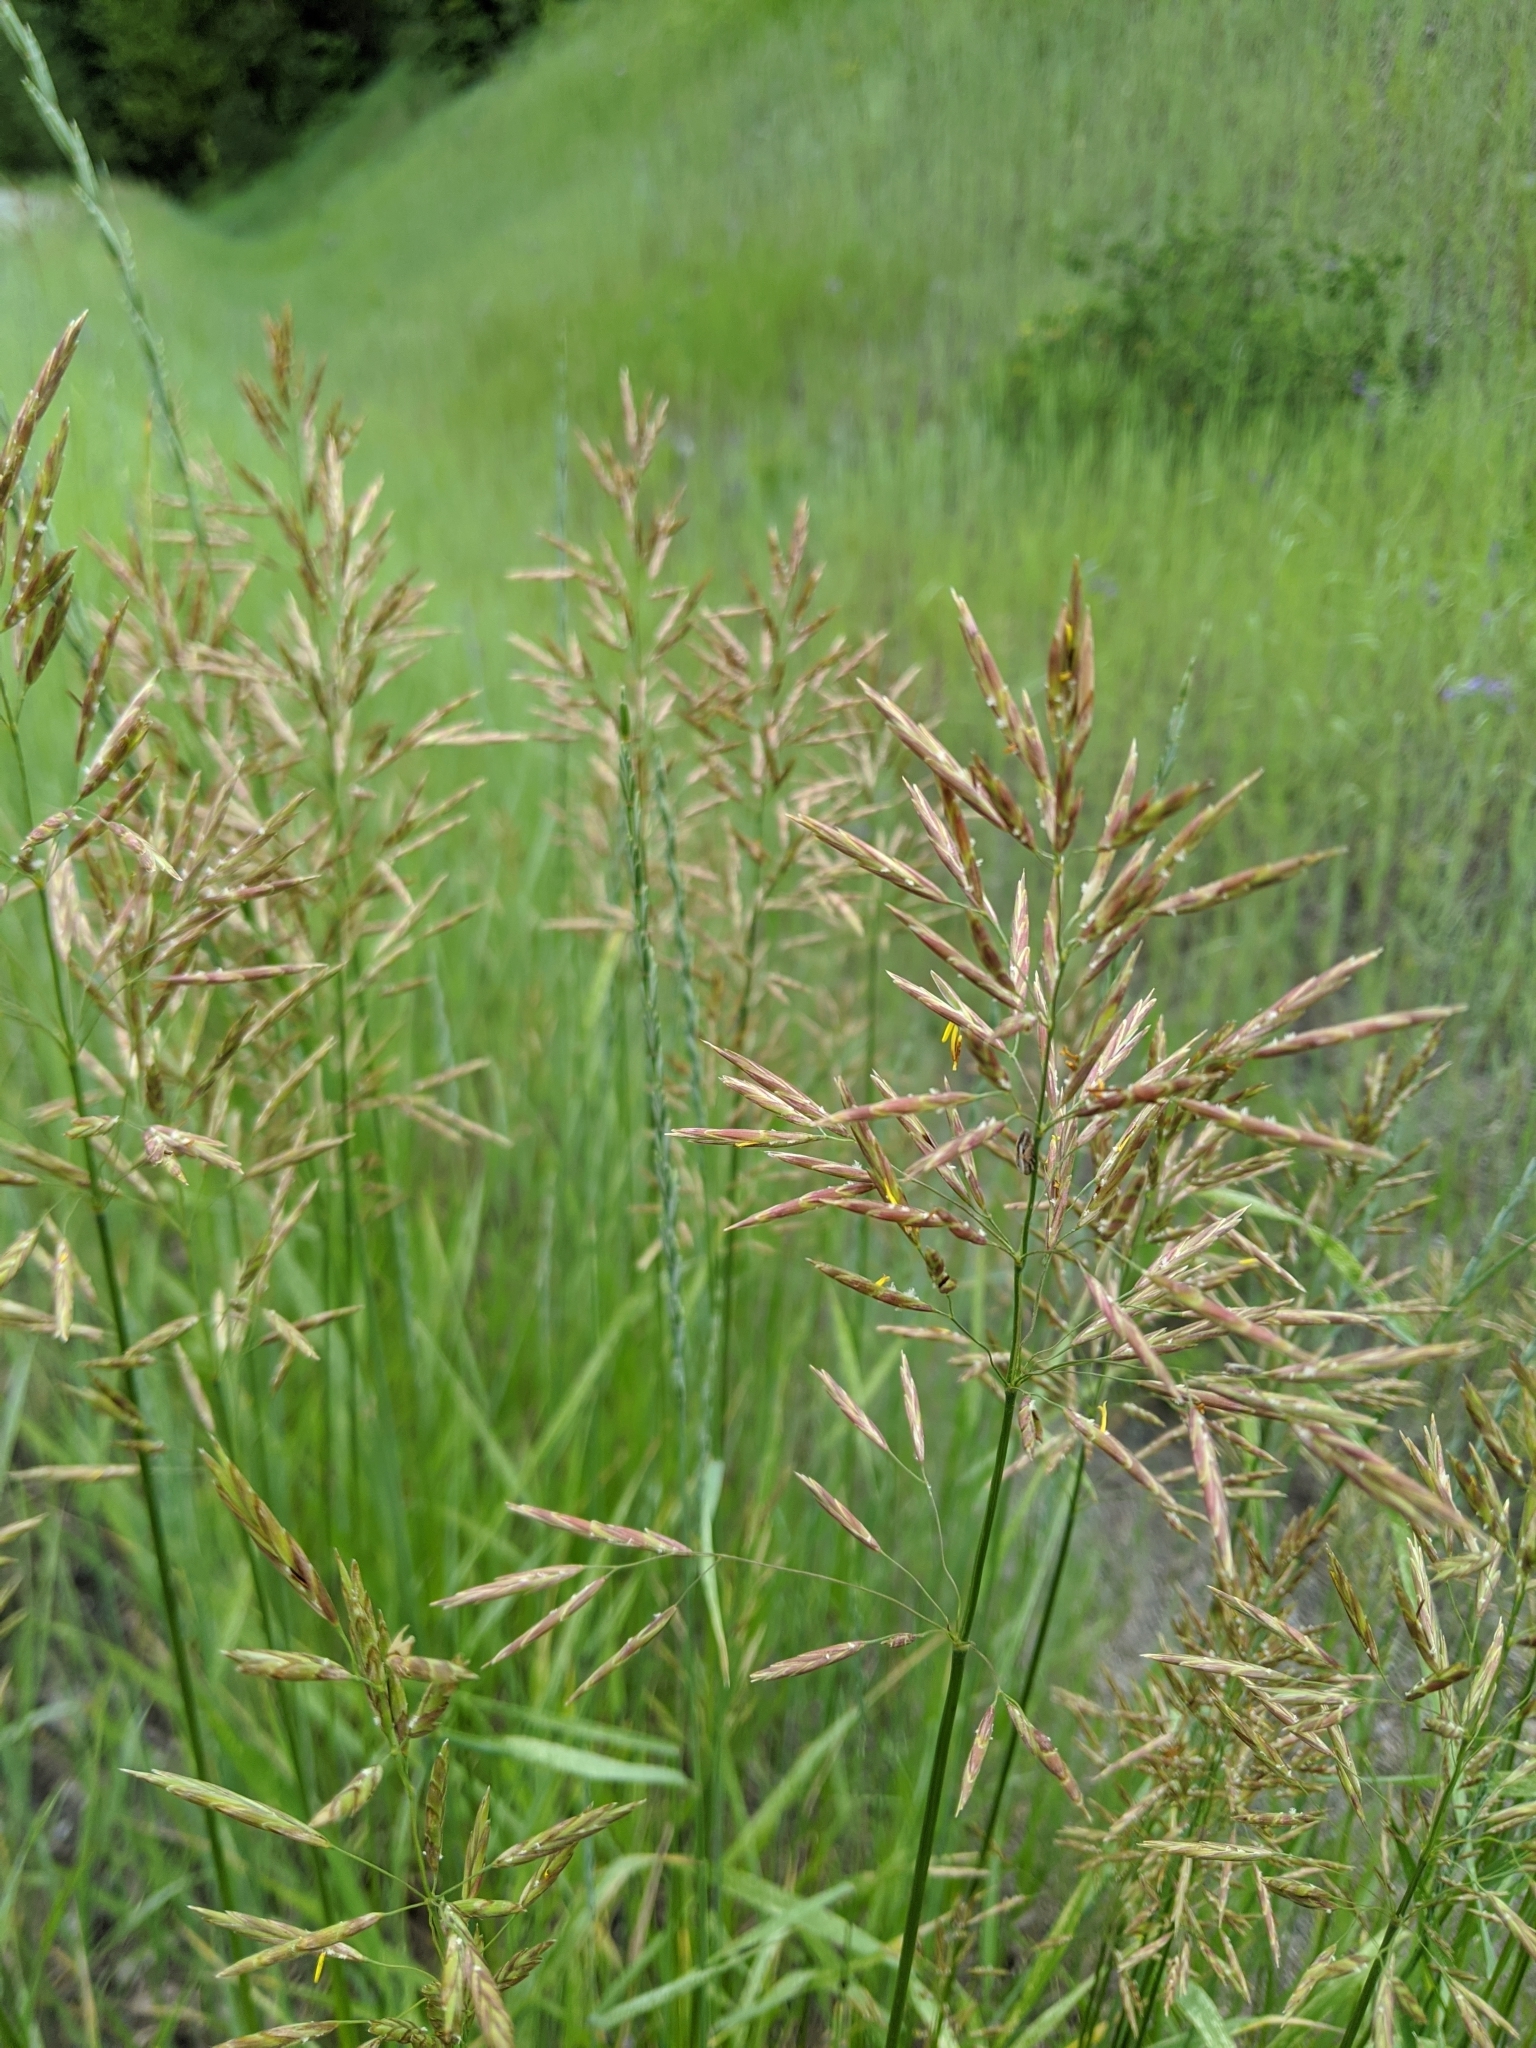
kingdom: Plantae
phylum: Tracheophyta
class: Liliopsida
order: Poales
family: Poaceae
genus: Bromus
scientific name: Bromus inermis
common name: Smooth brome
